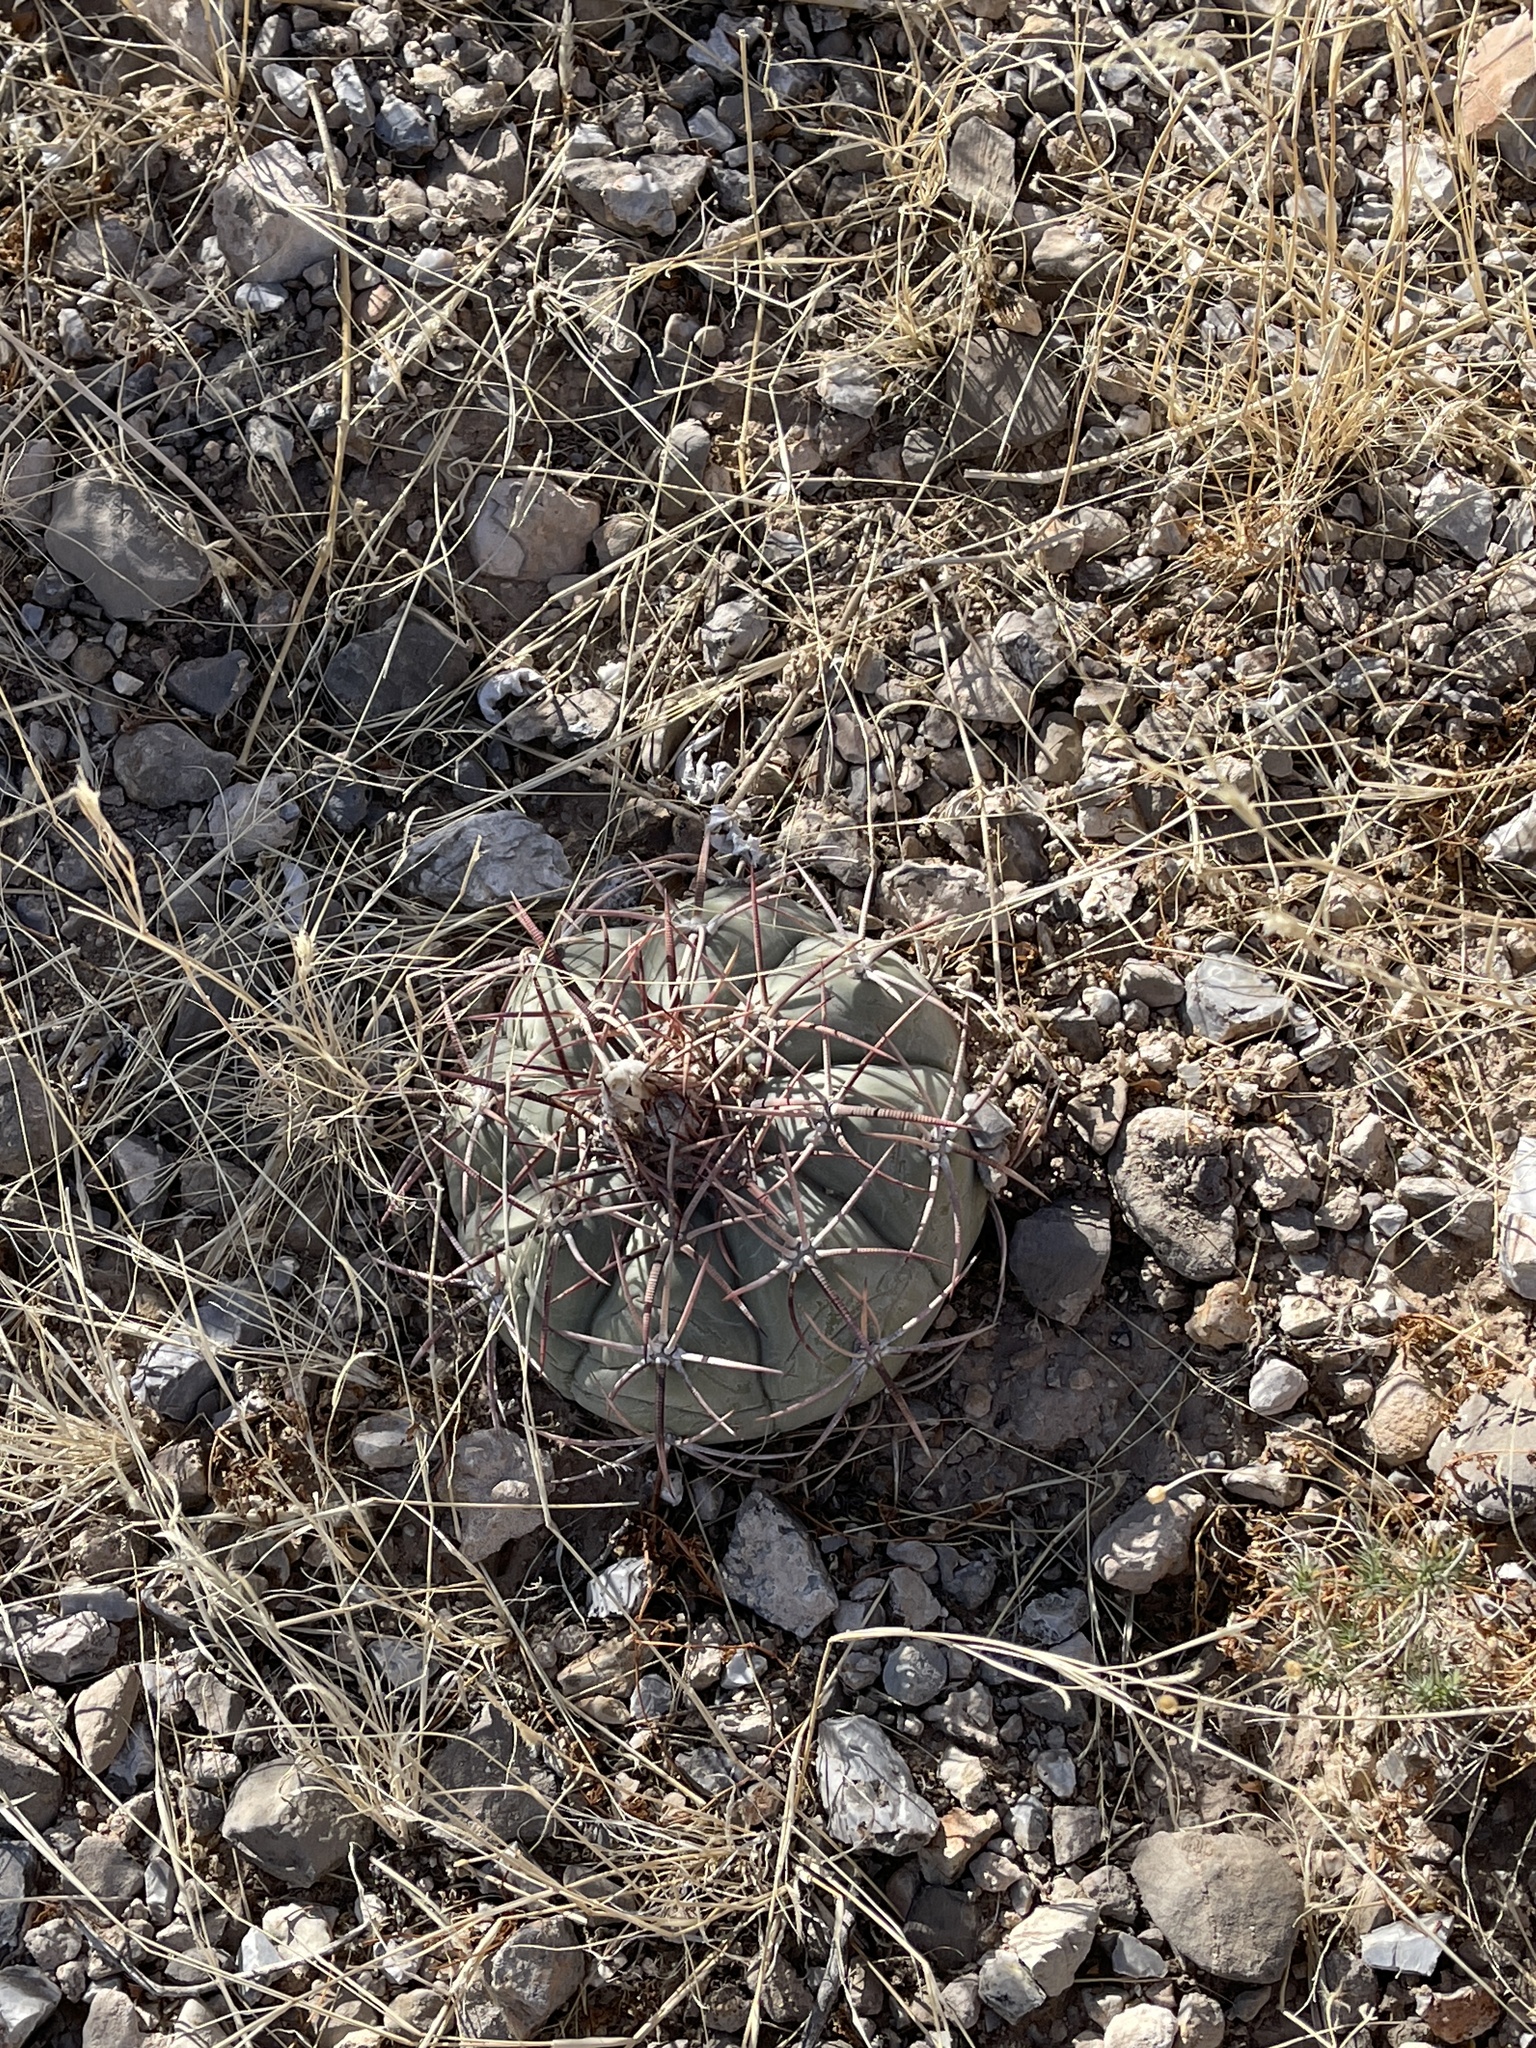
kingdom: Plantae
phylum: Tracheophyta
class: Magnoliopsida
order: Caryophyllales
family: Cactaceae
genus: Echinocactus
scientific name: Echinocactus horizonthalonius
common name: Devilshead
